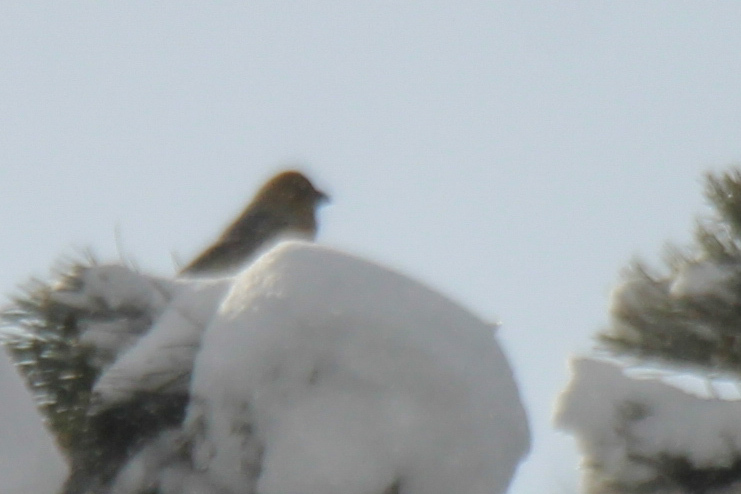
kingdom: Animalia
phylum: Chordata
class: Aves
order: Passeriformes
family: Fringillidae
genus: Pinicola
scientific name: Pinicola enucleator
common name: Pine grosbeak
